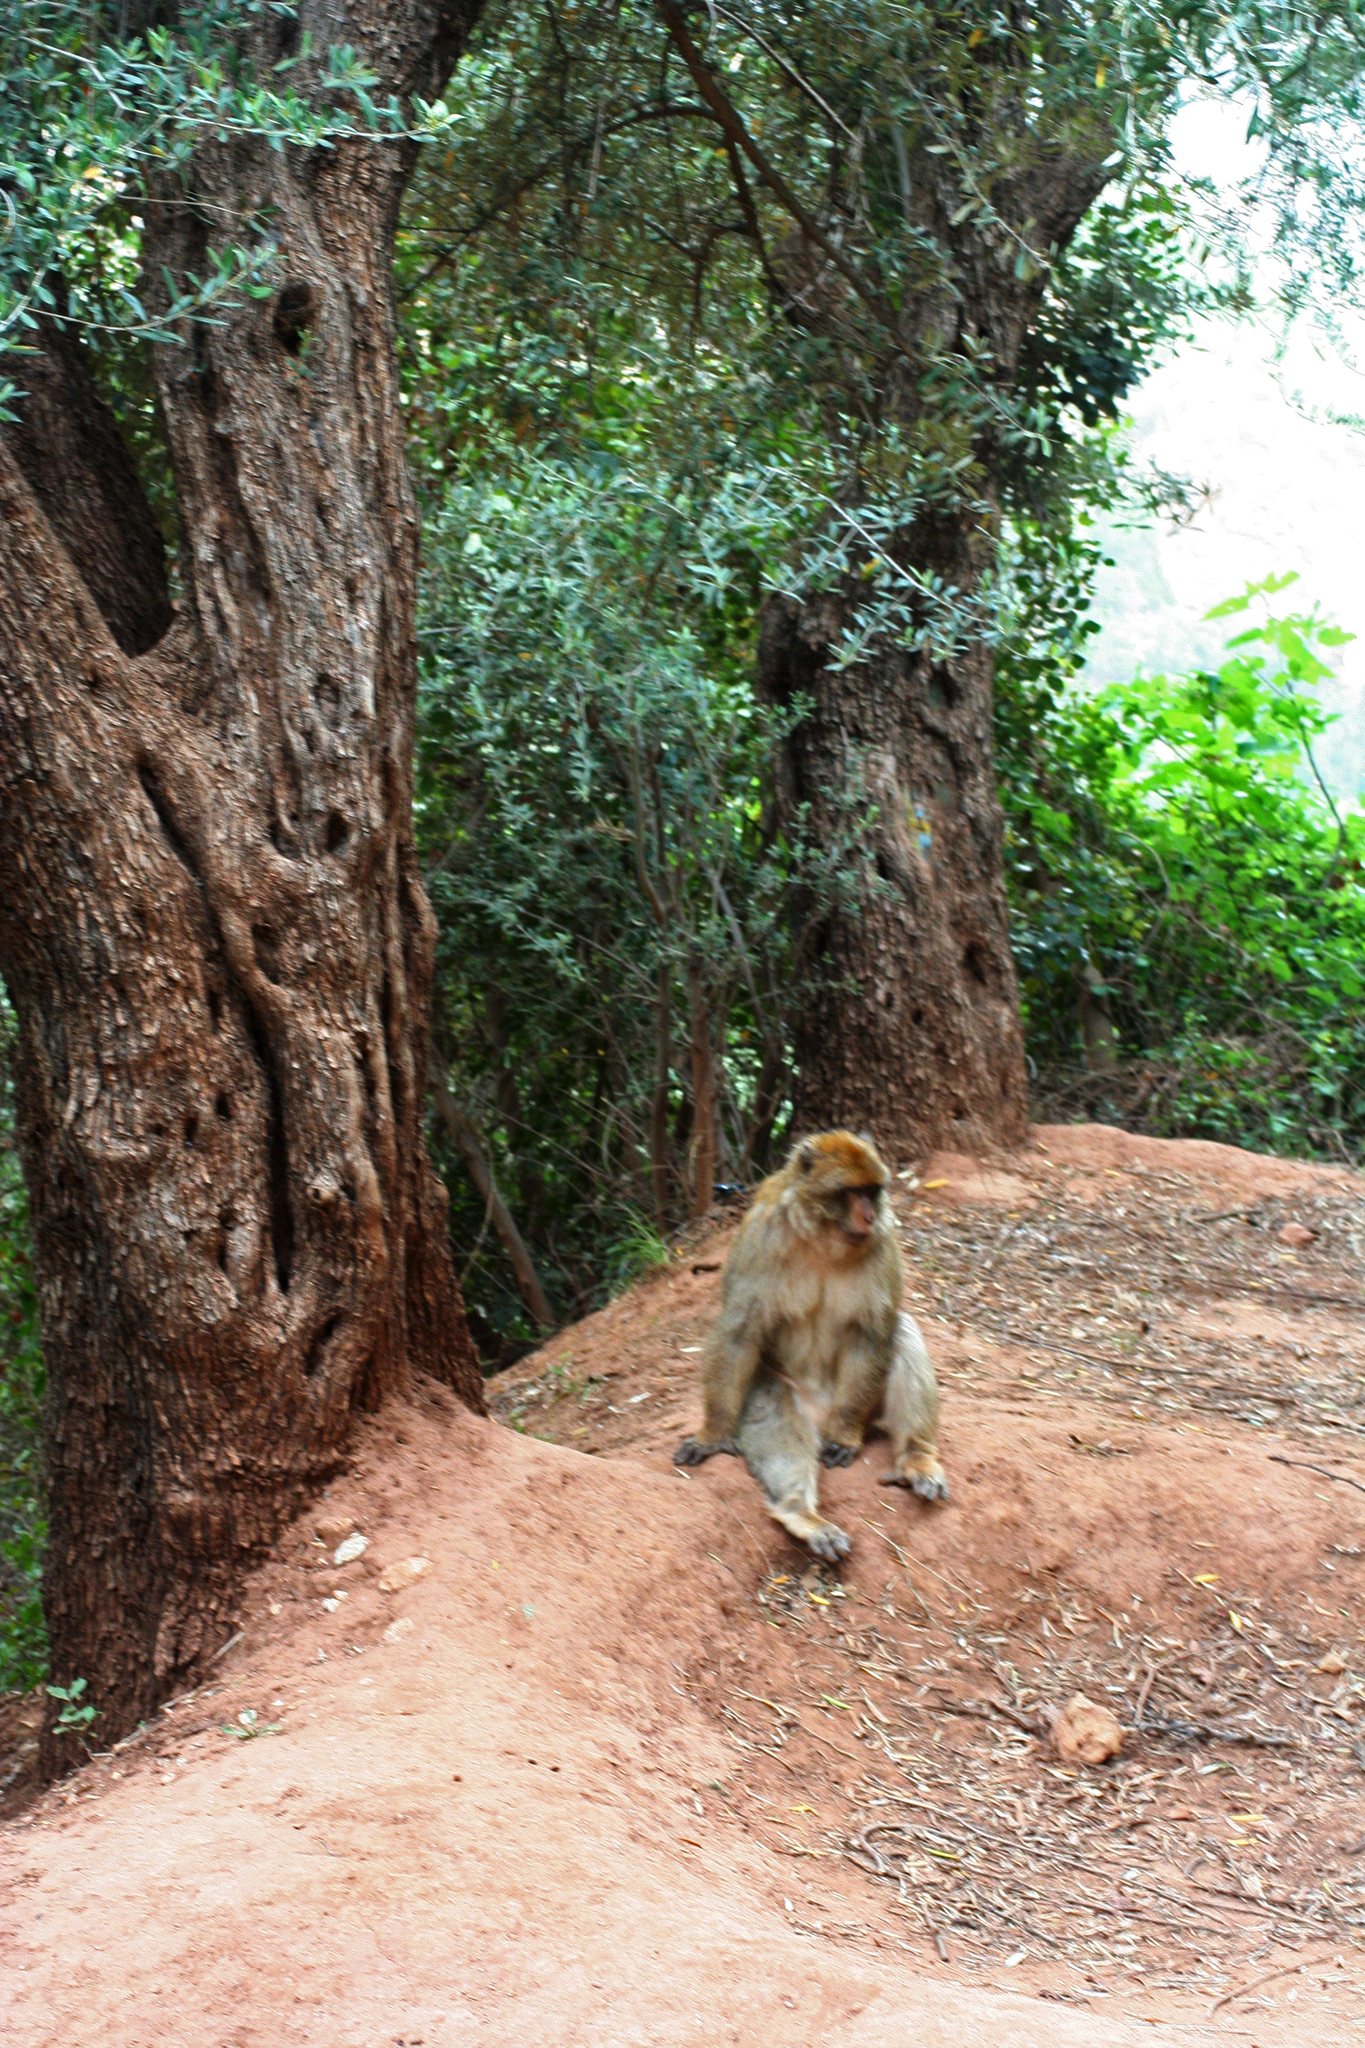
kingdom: Animalia
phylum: Chordata
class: Mammalia
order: Primates
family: Cercopithecidae
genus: Macaca
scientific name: Macaca sylvanus
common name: Barbary macaque
